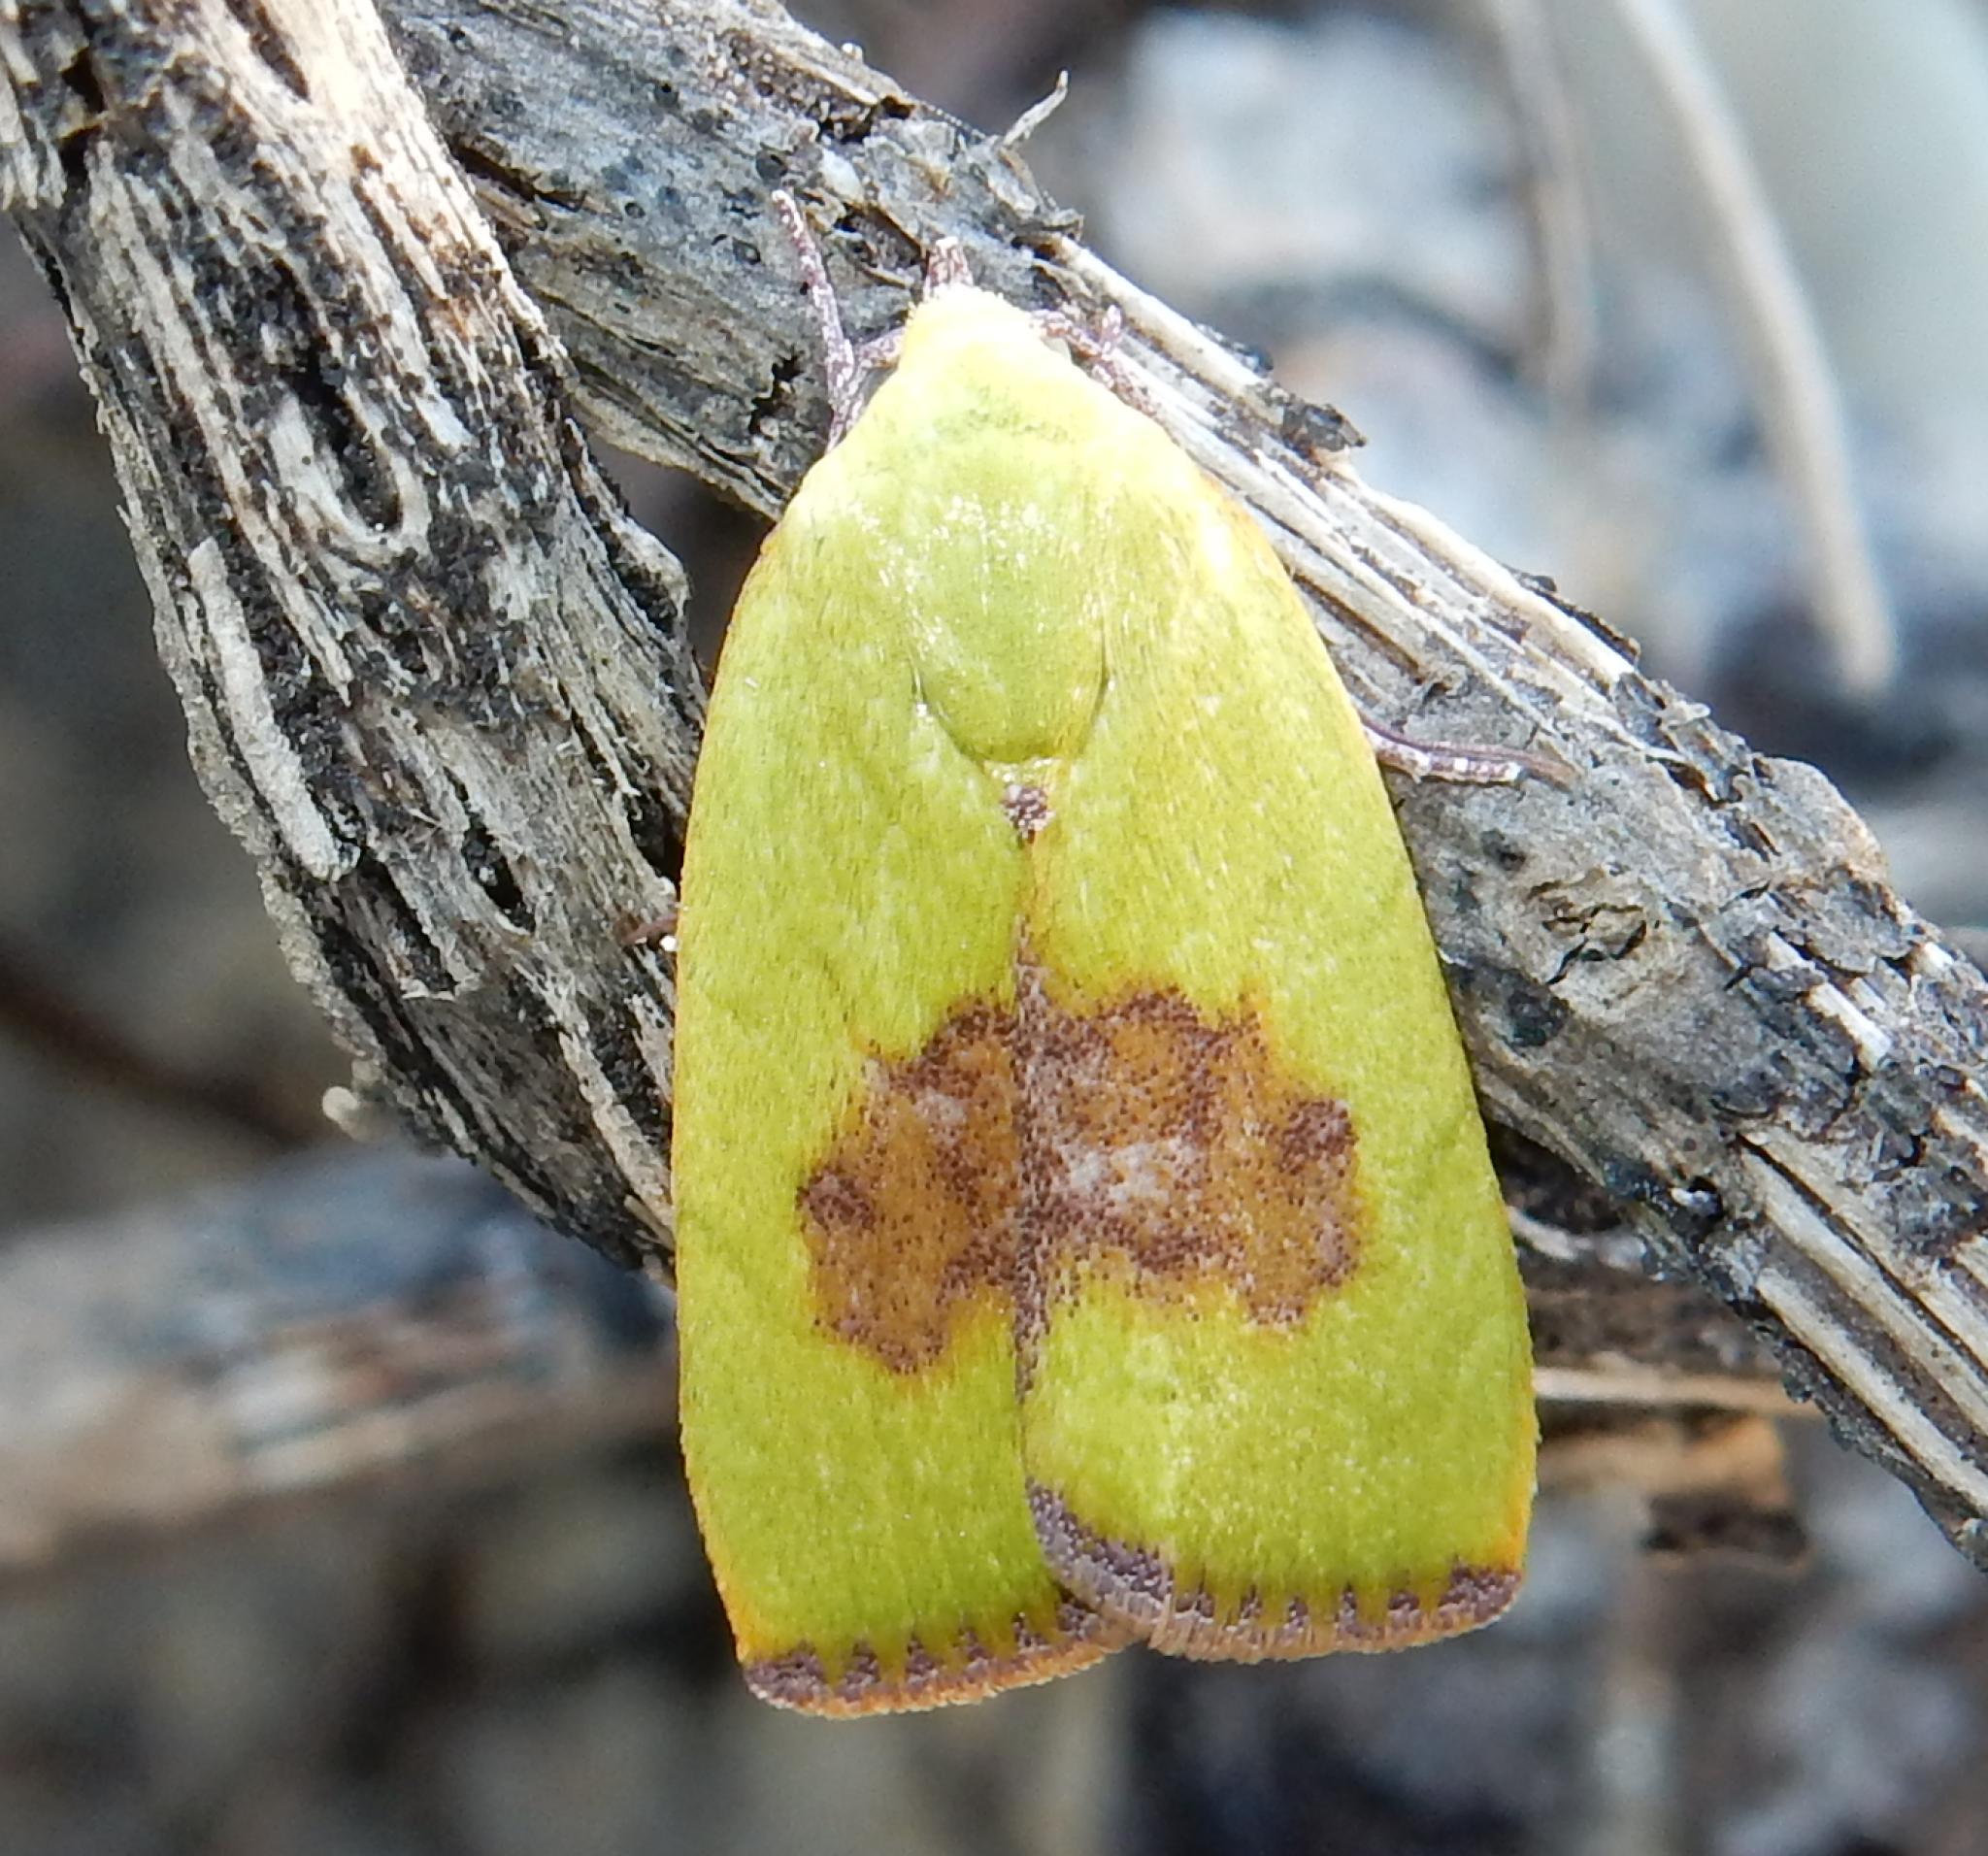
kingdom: Animalia
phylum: Arthropoda
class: Insecta
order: Lepidoptera
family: Nolidae
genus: Earias
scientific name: Earias biplaga
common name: Spiny bollworm
